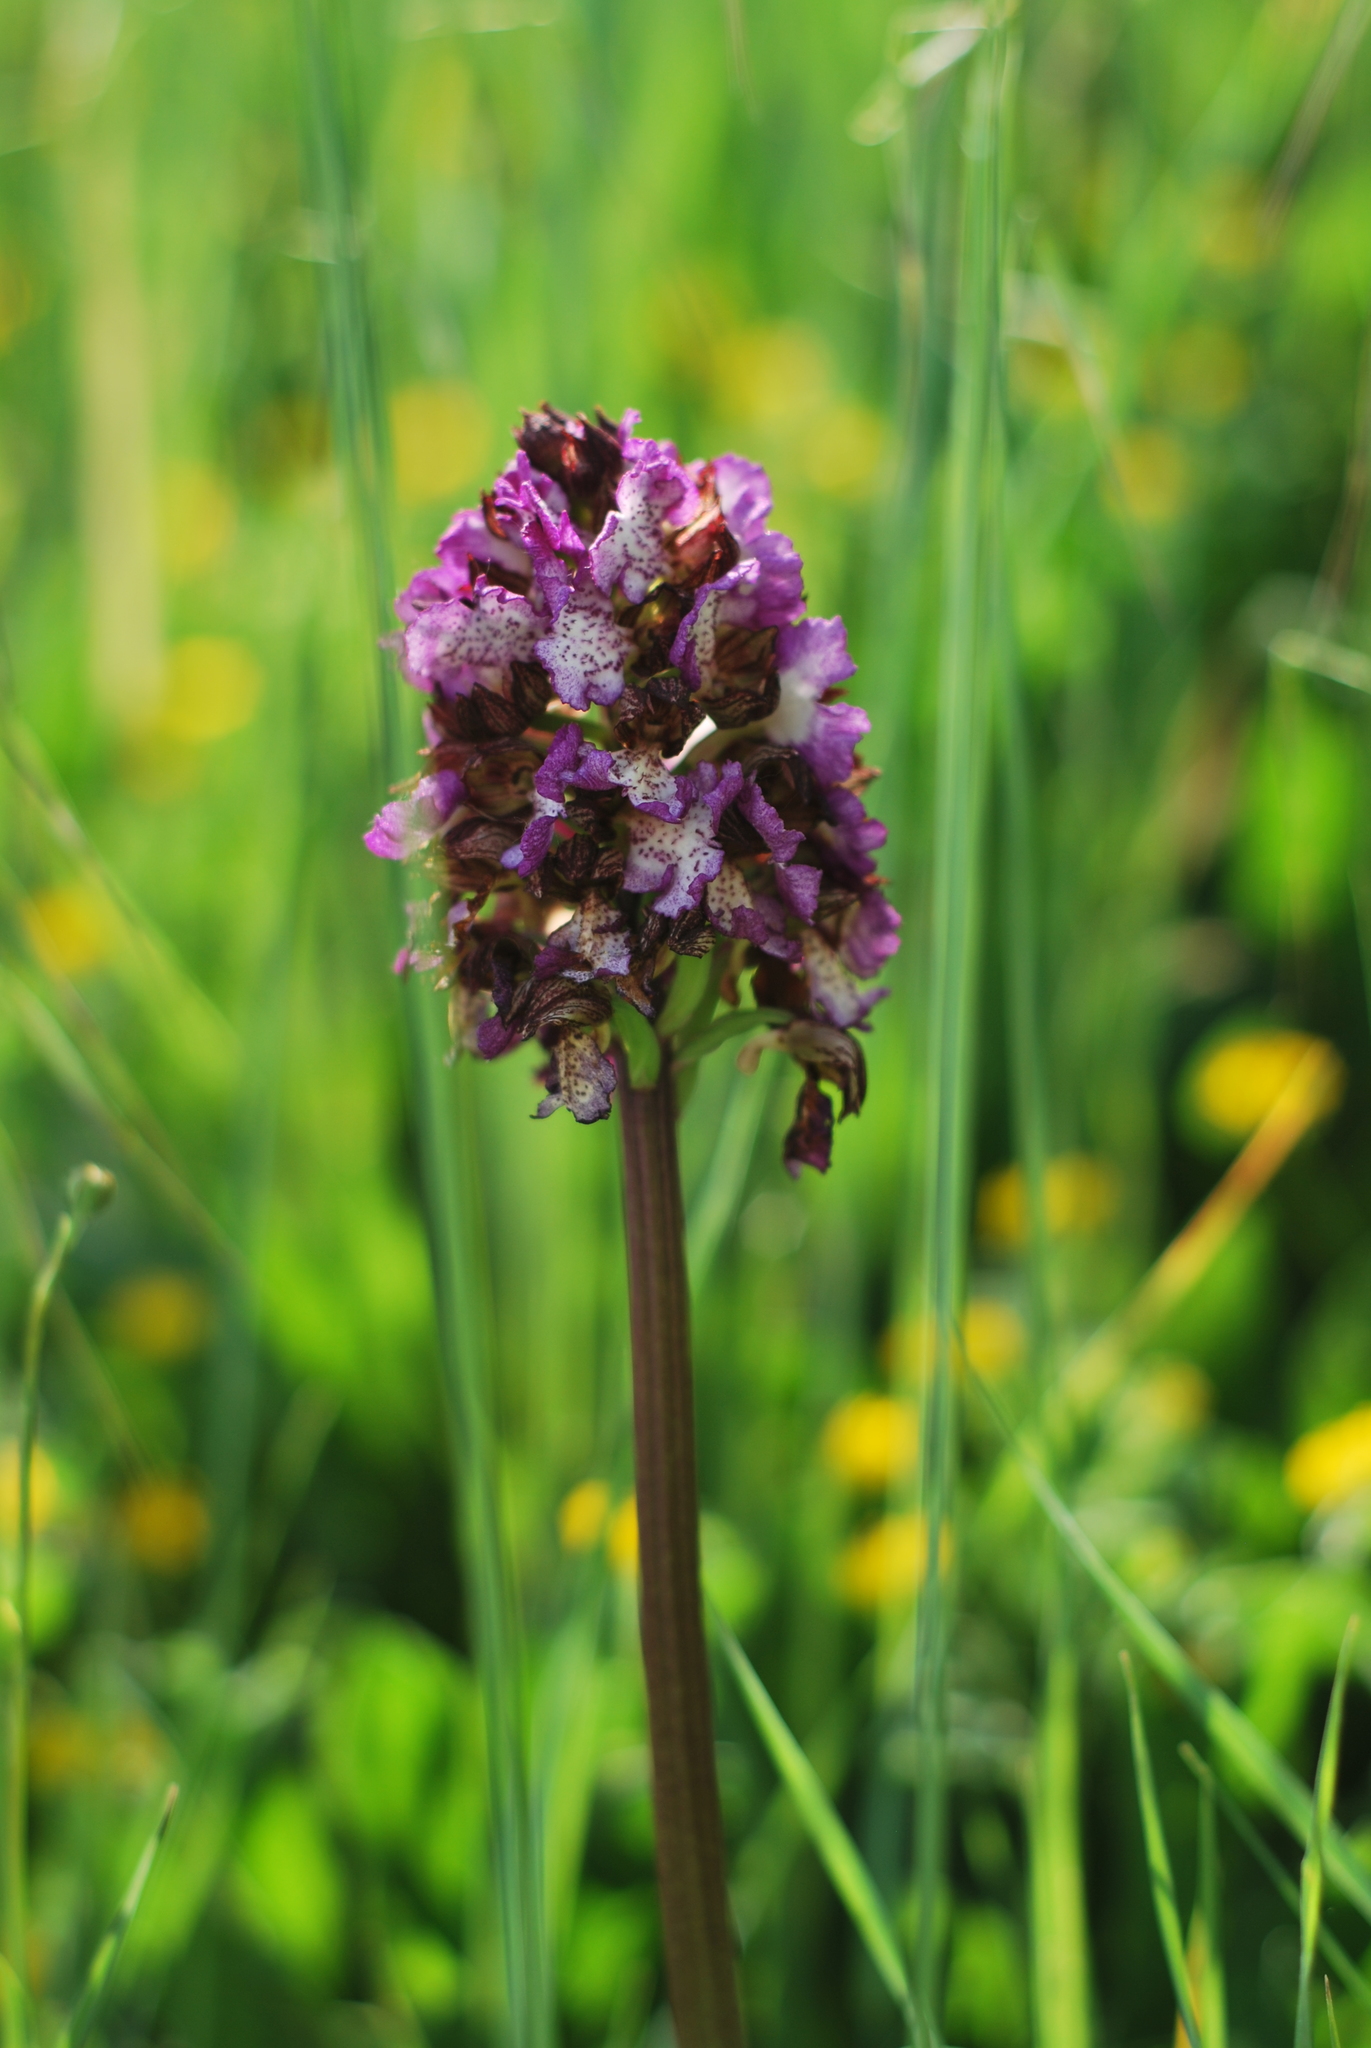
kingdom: Plantae
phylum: Tracheophyta
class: Liliopsida
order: Asparagales
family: Orchidaceae
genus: Orchis
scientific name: Orchis purpurea
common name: Lady orchid
